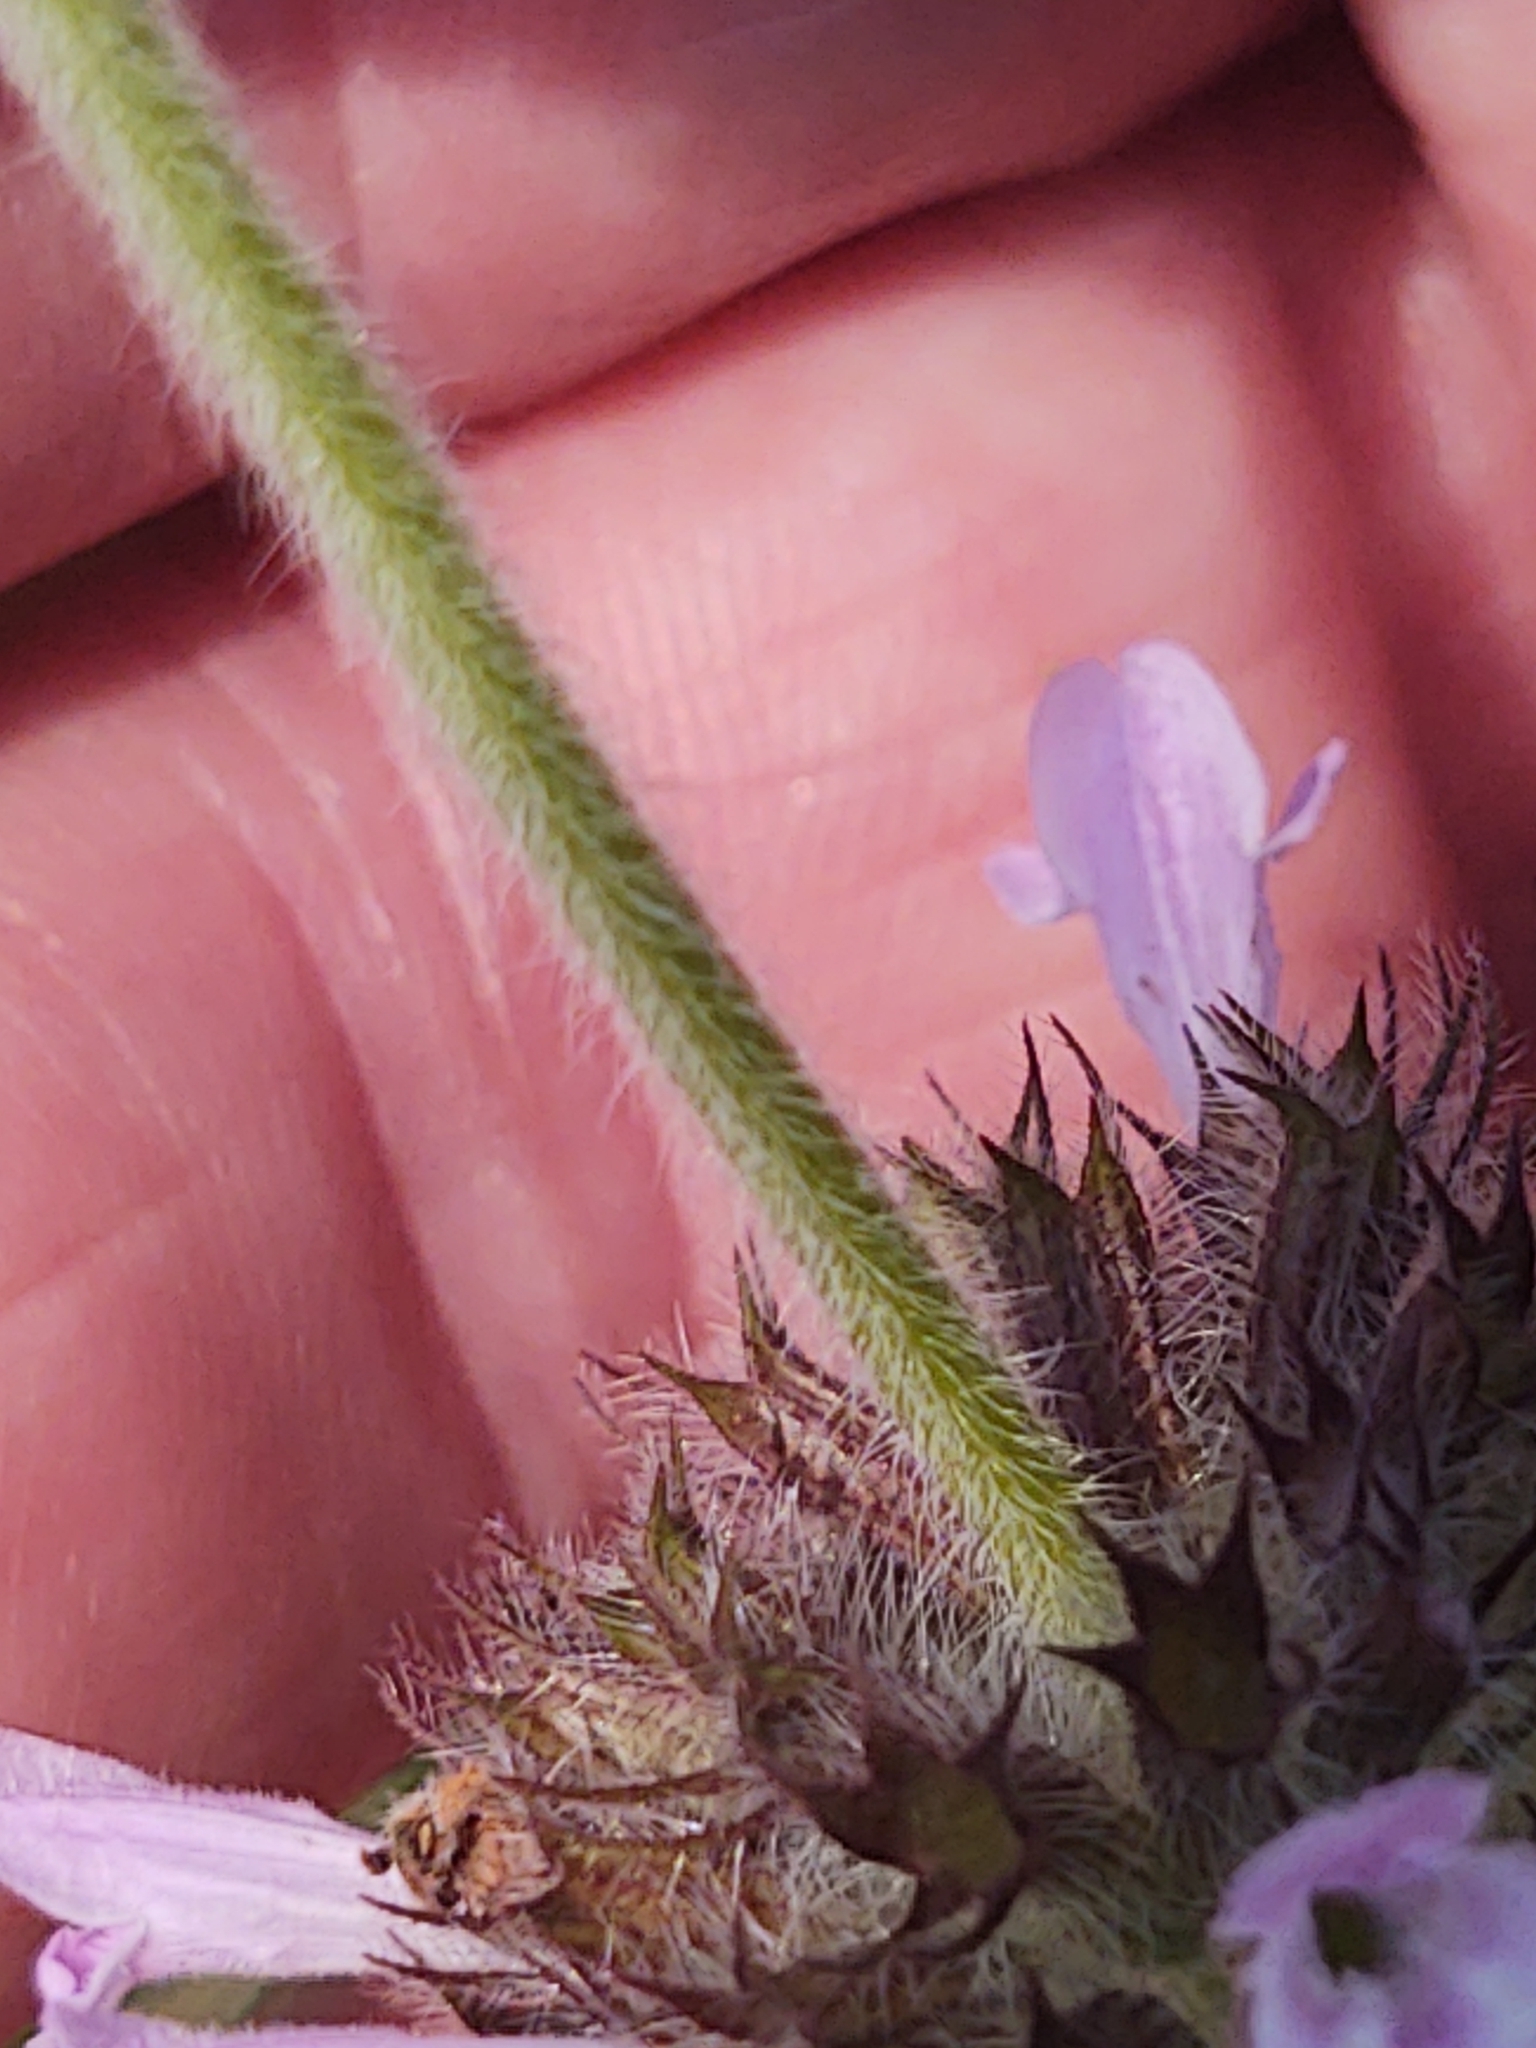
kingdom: Plantae
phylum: Tracheophyta
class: Magnoliopsida
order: Lamiales
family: Lamiaceae
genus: Clinopodium
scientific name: Clinopodium vulgare
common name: Wild basil
